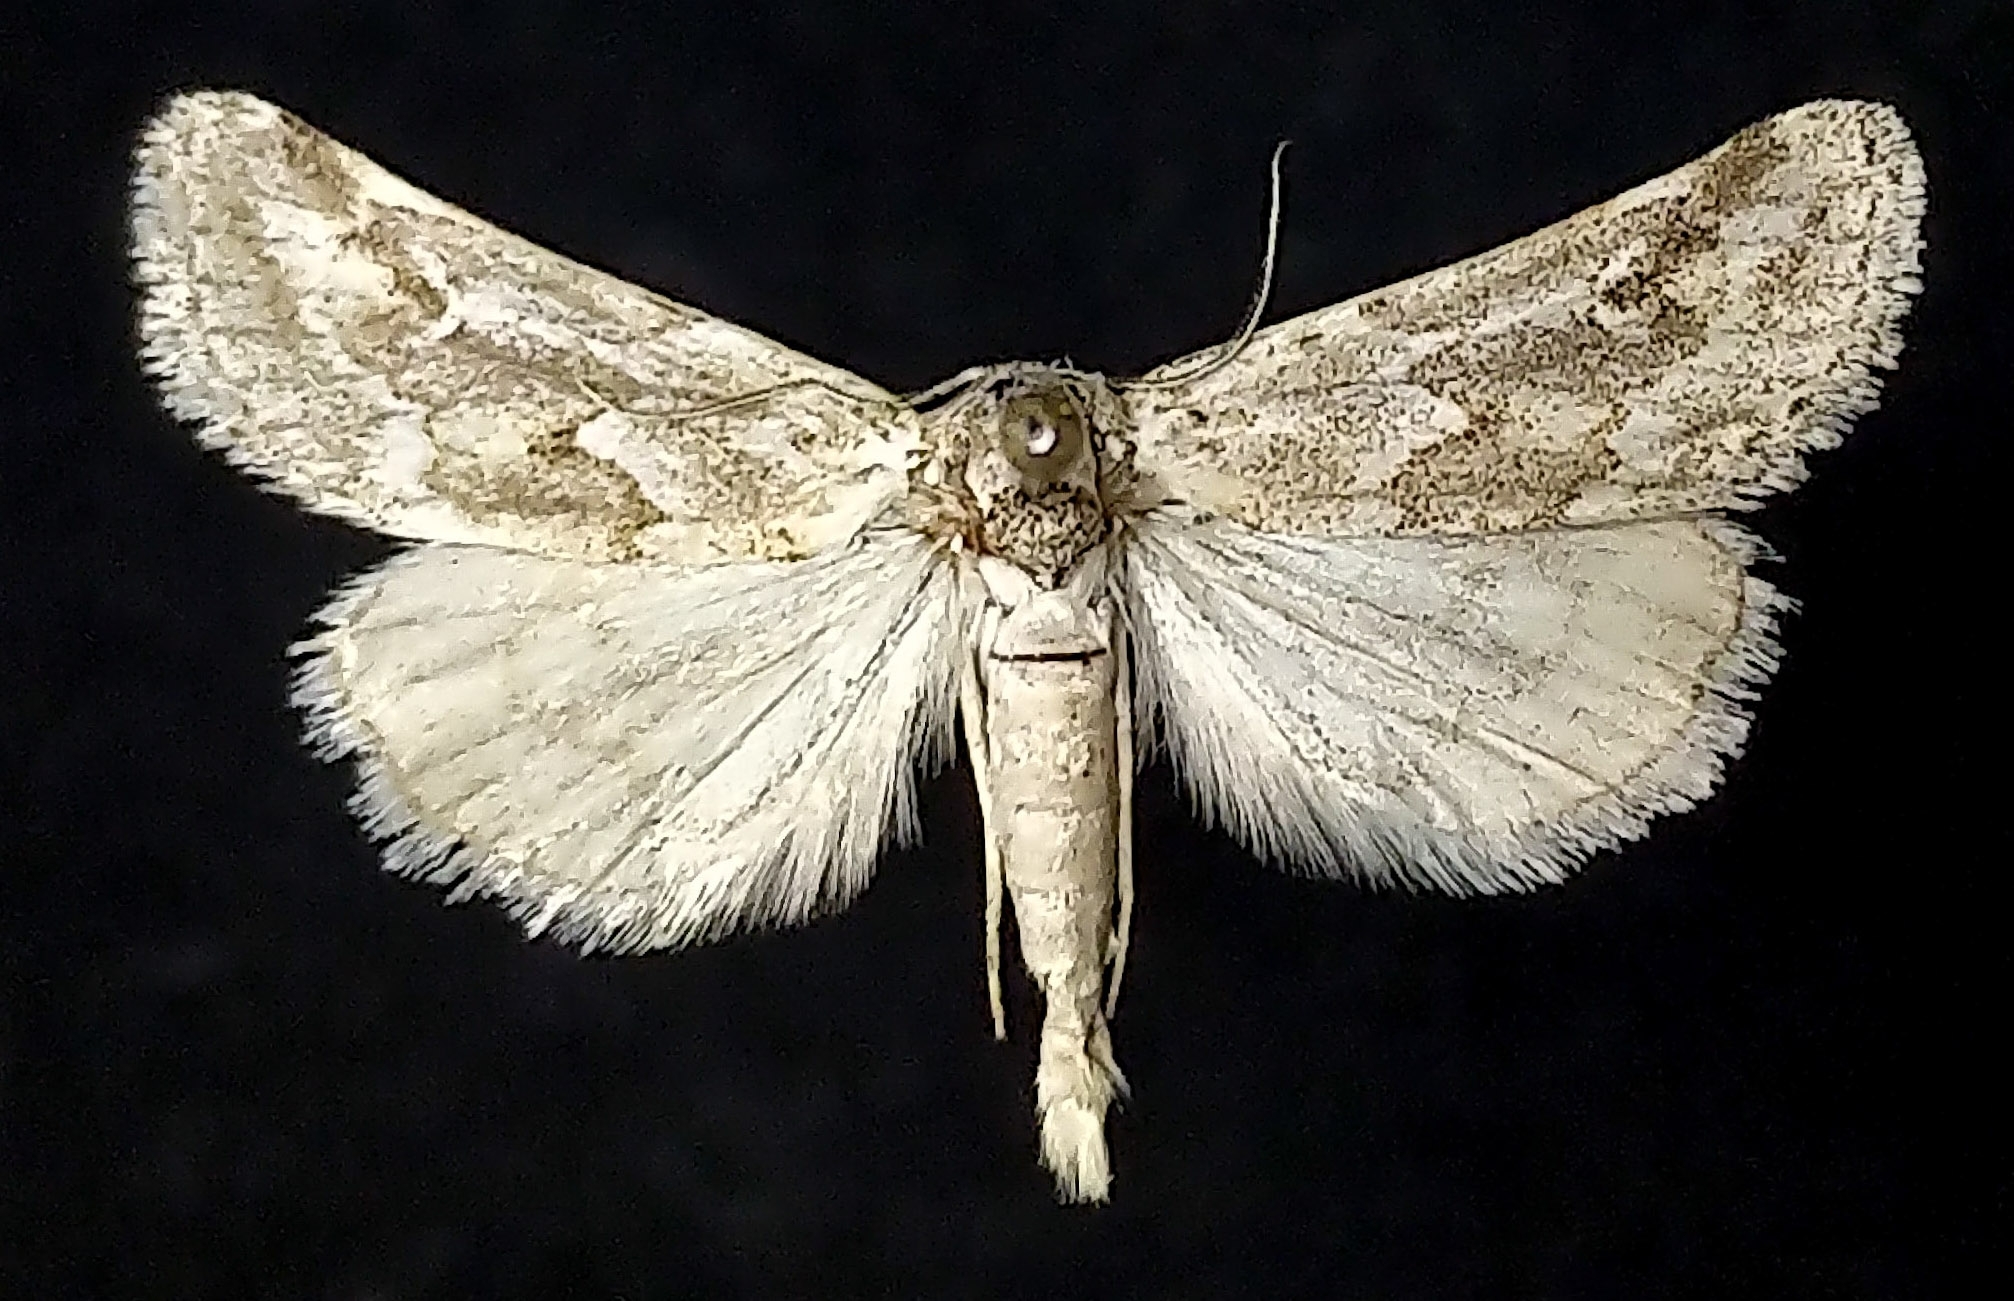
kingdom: Animalia
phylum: Arthropoda
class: Insecta
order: Lepidoptera
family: Noctuidae
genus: Acopa
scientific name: Acopa perpallida
